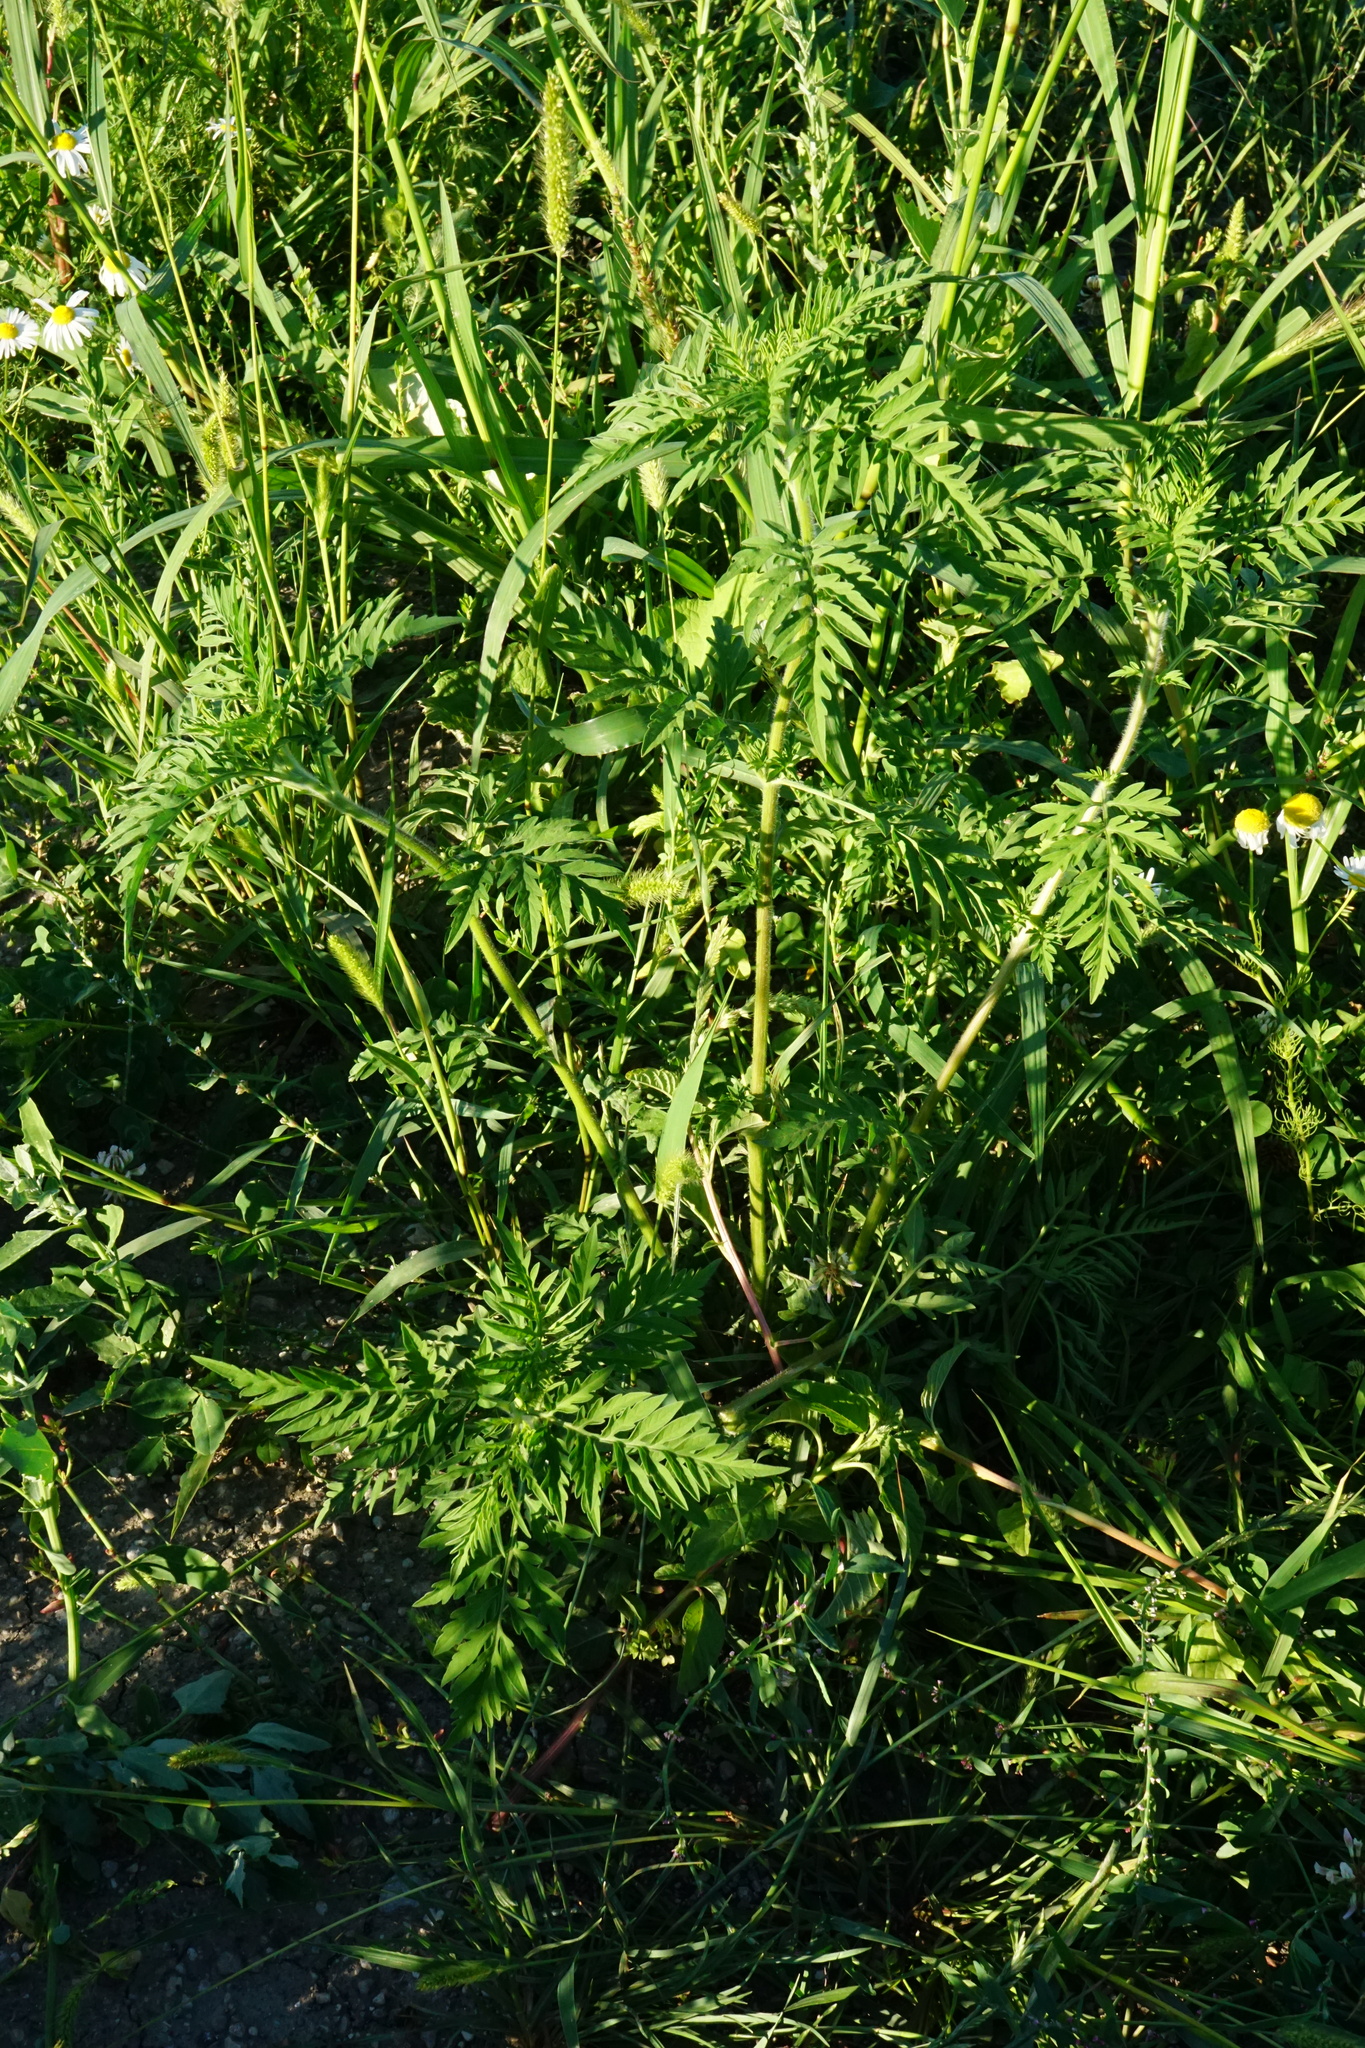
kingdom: Plantae
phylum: Tracheophyta
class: Magnoliopsida
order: Asterales
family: Asteraceae
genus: Ambrosia
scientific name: Ambrosia artemisiifolia
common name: Annual ragweed
